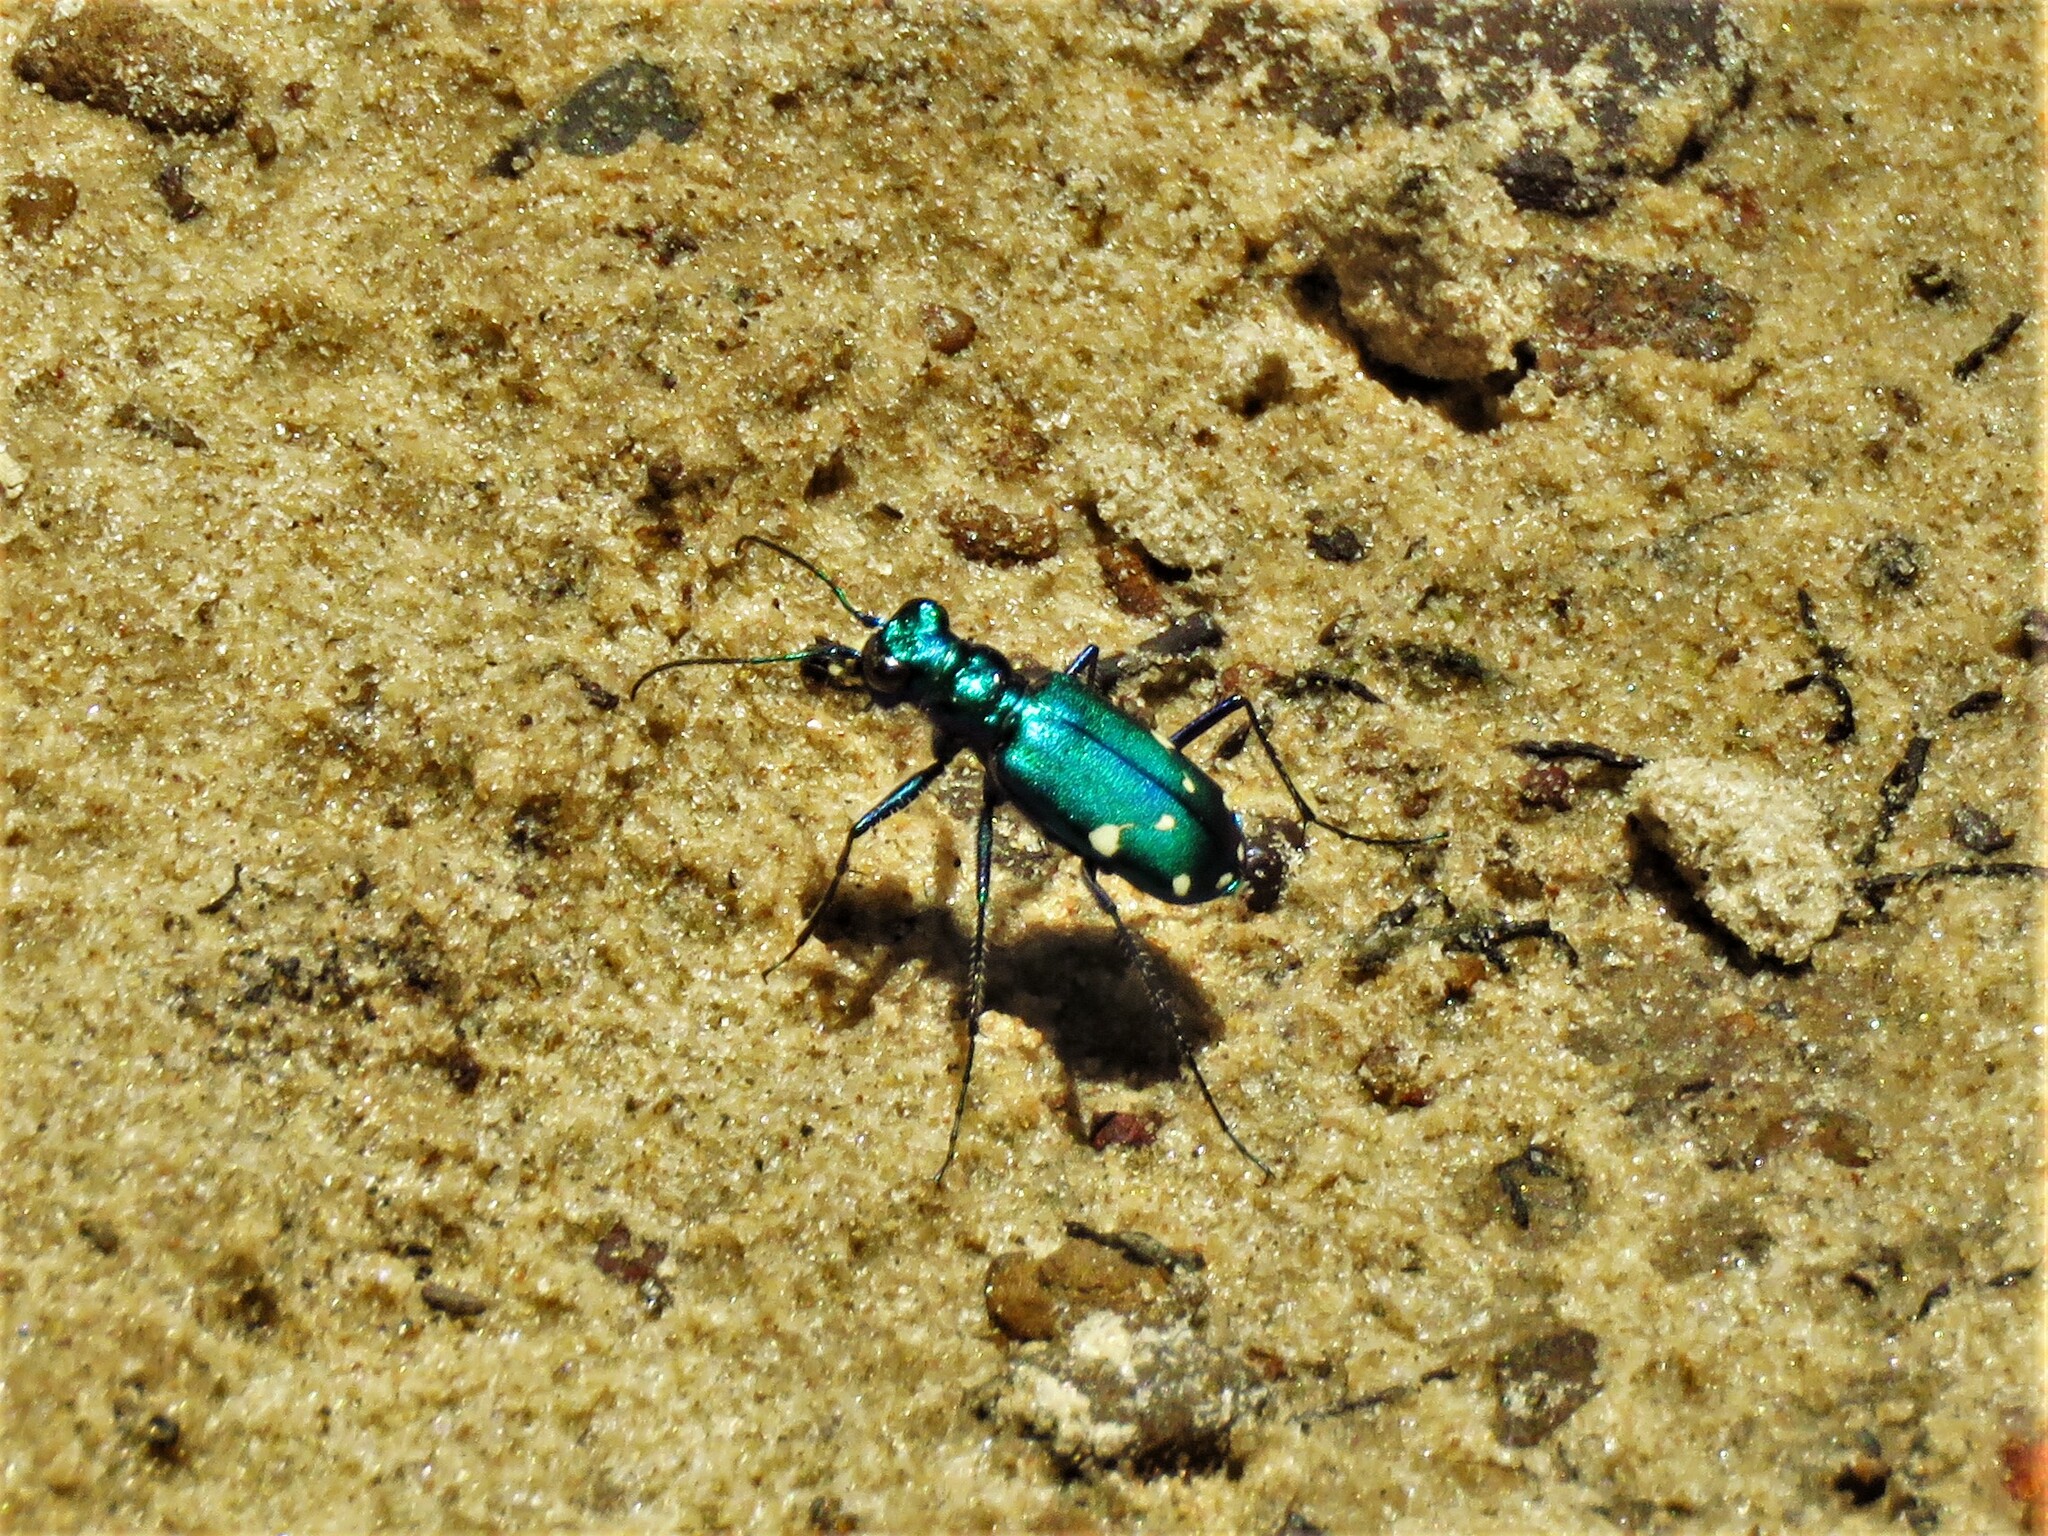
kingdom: Animalia
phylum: Arthropoda
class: Insecta
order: Coleoptera
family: Carabidae
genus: Cicindela
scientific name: Cicindela sexguttata
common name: Six-spotted tiger beetle
